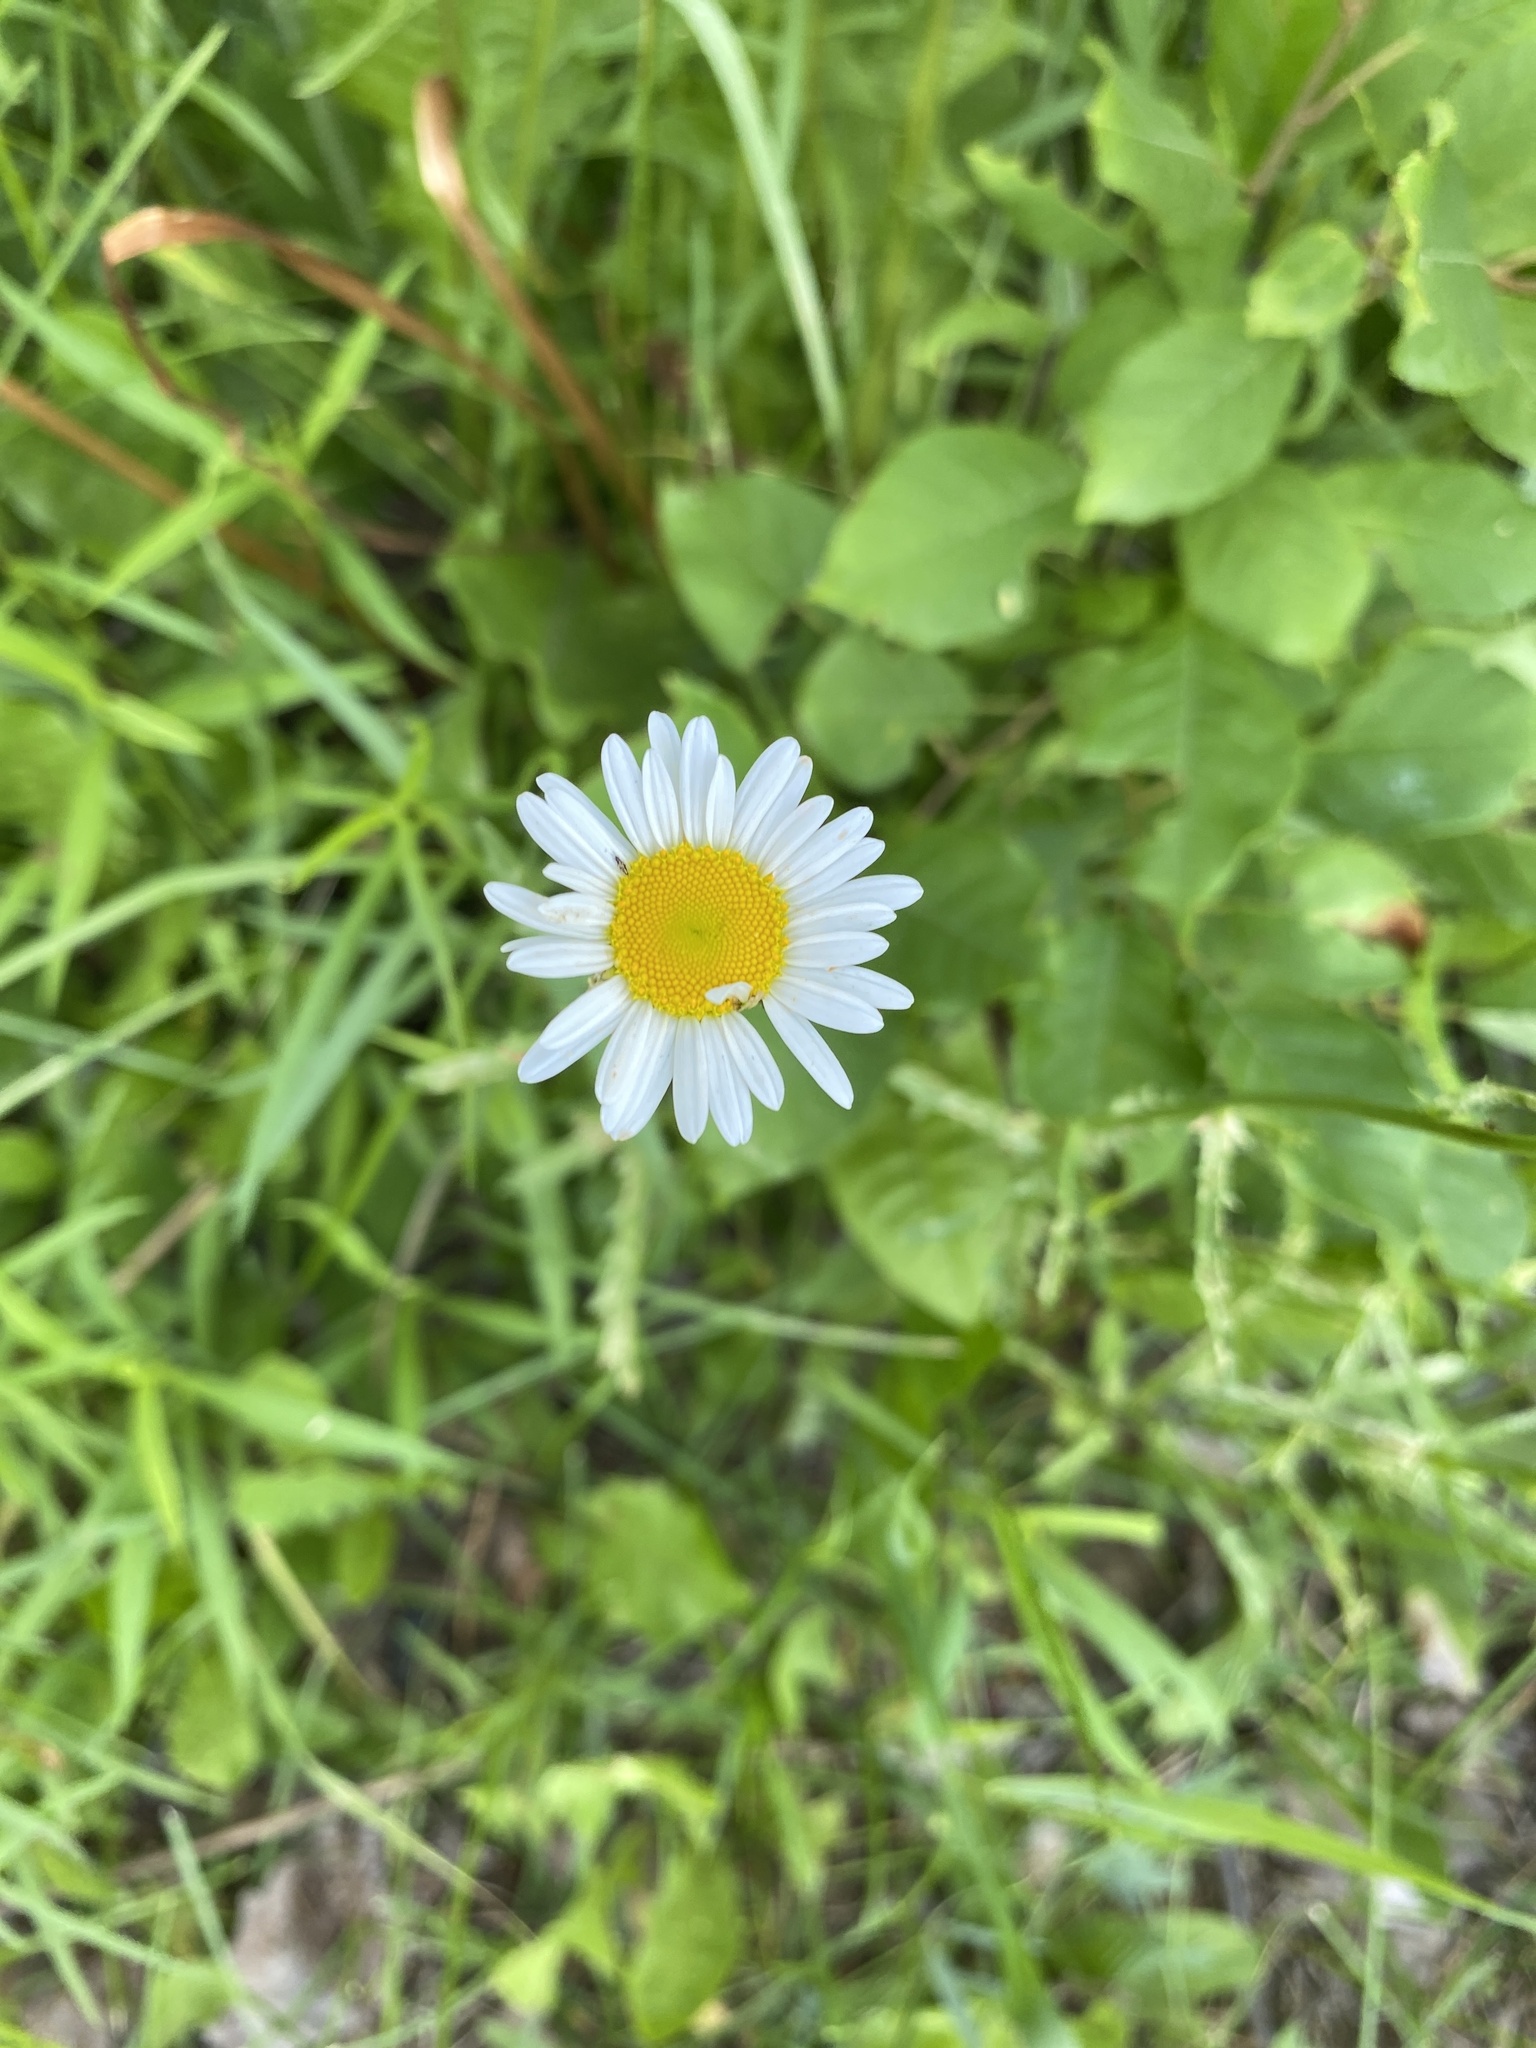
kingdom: Plantae
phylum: Tracheophyta
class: Magnoliopsida
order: Asterales
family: Asteraceae
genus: Leucanthemum
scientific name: Leucanthemum vulgare
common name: Oxeye daisy
